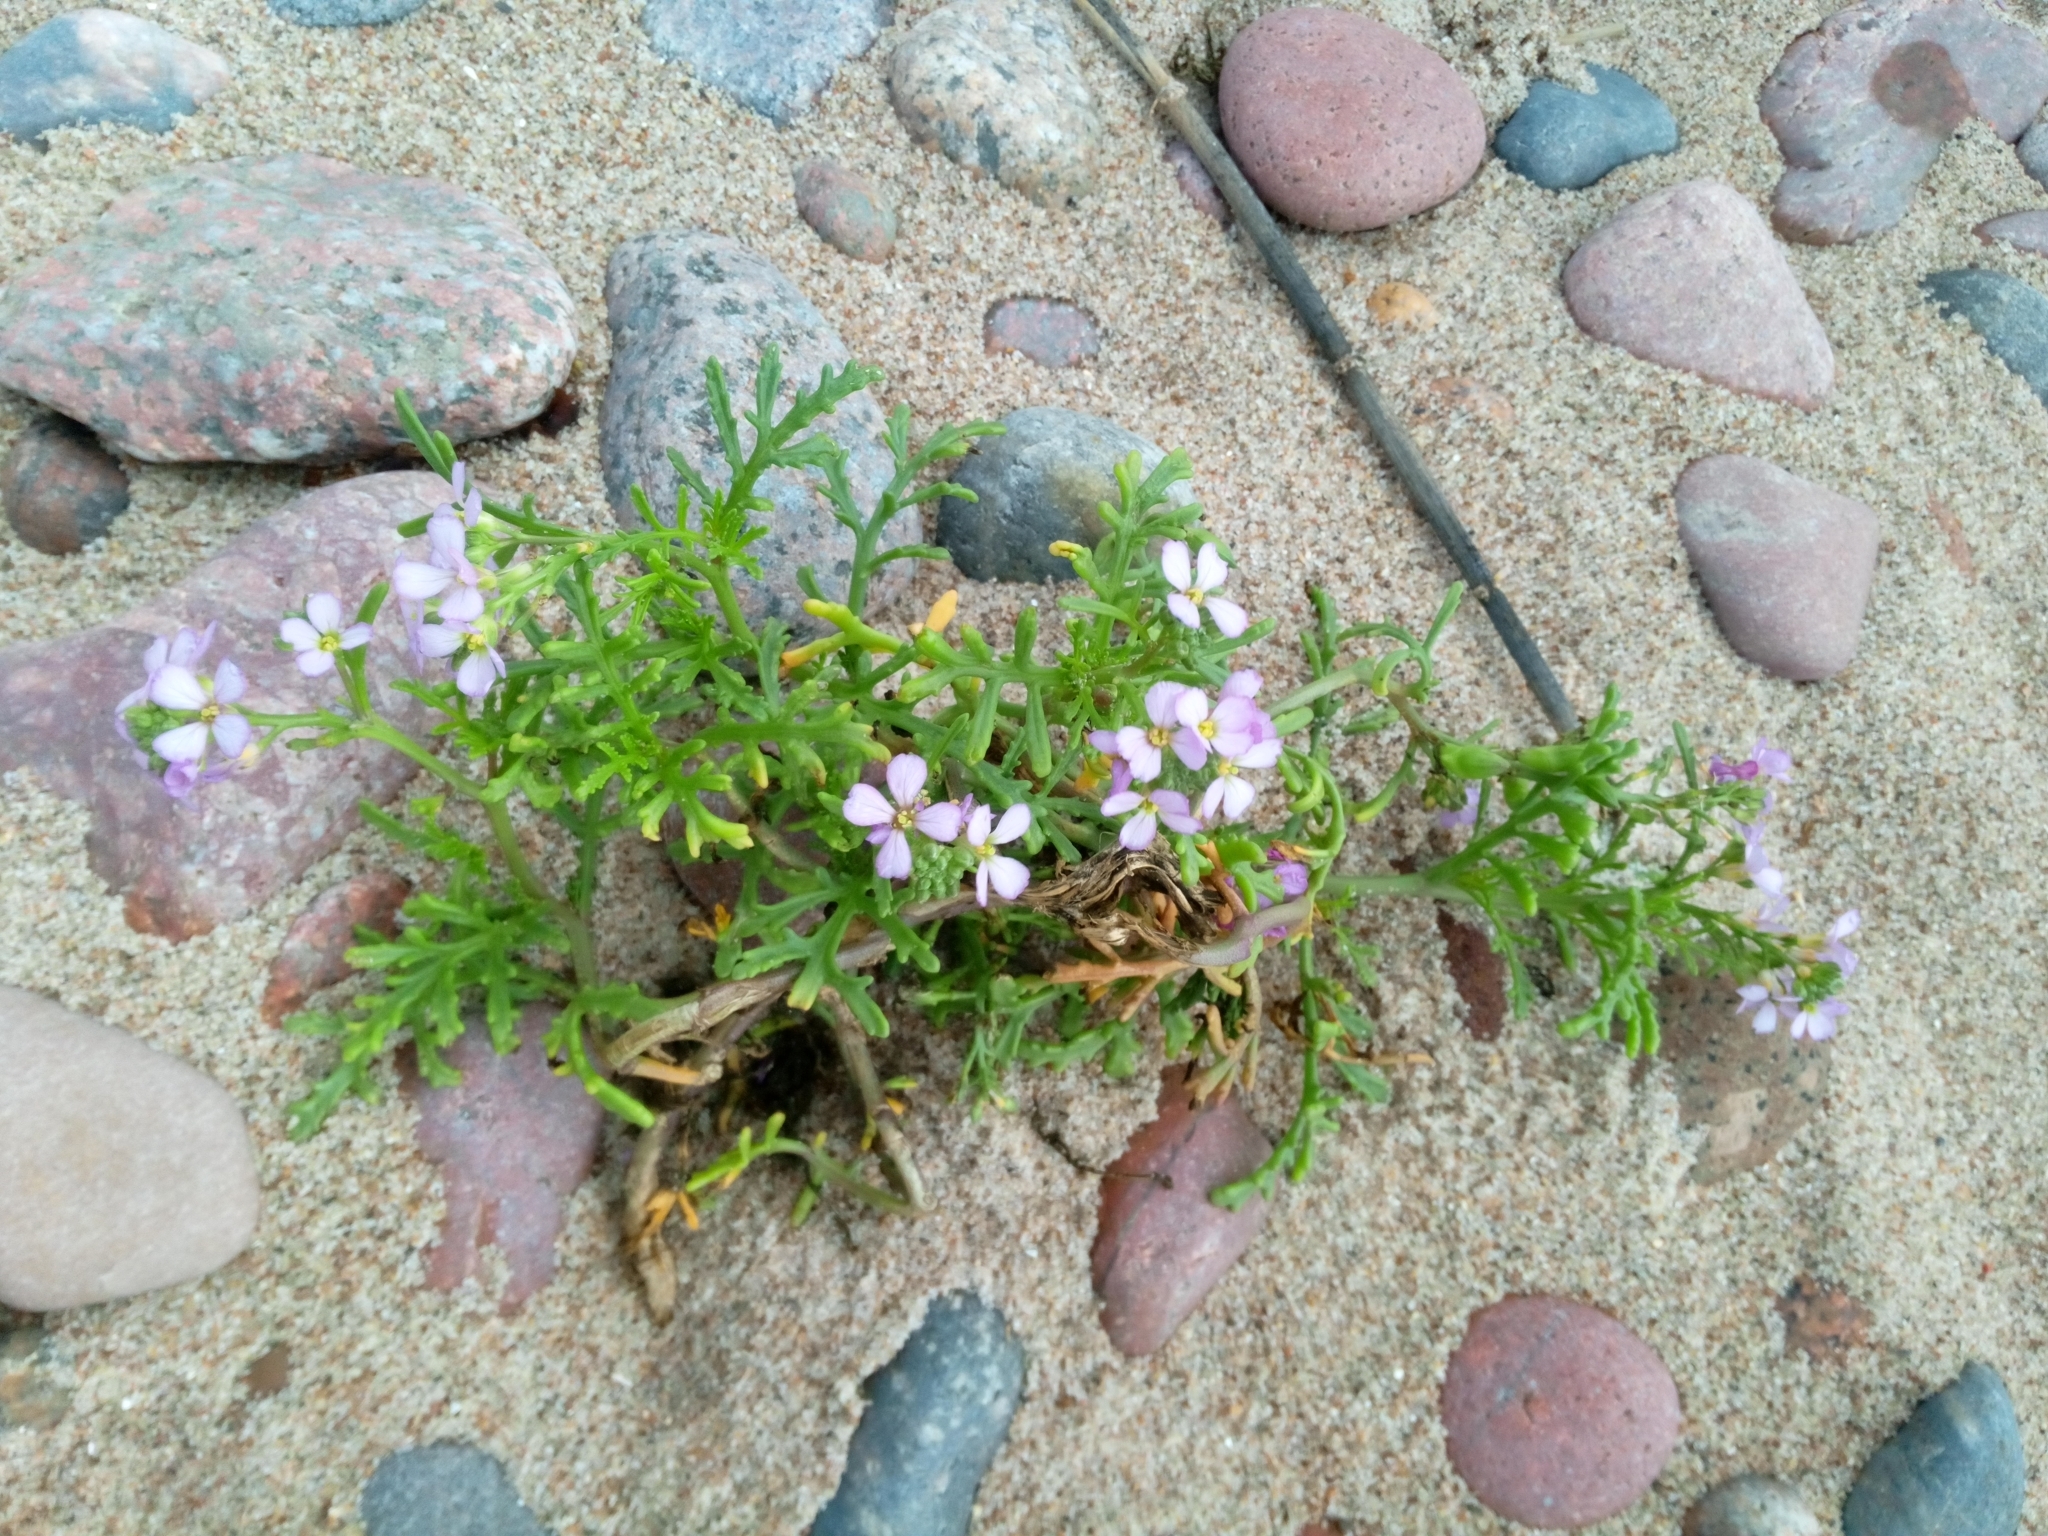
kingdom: Plantae
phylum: Tracheophyta
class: Magnoliopsida
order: Brassicales
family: Brassicaceae
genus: Cakile
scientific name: Cakile maritima
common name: Sea rocket
